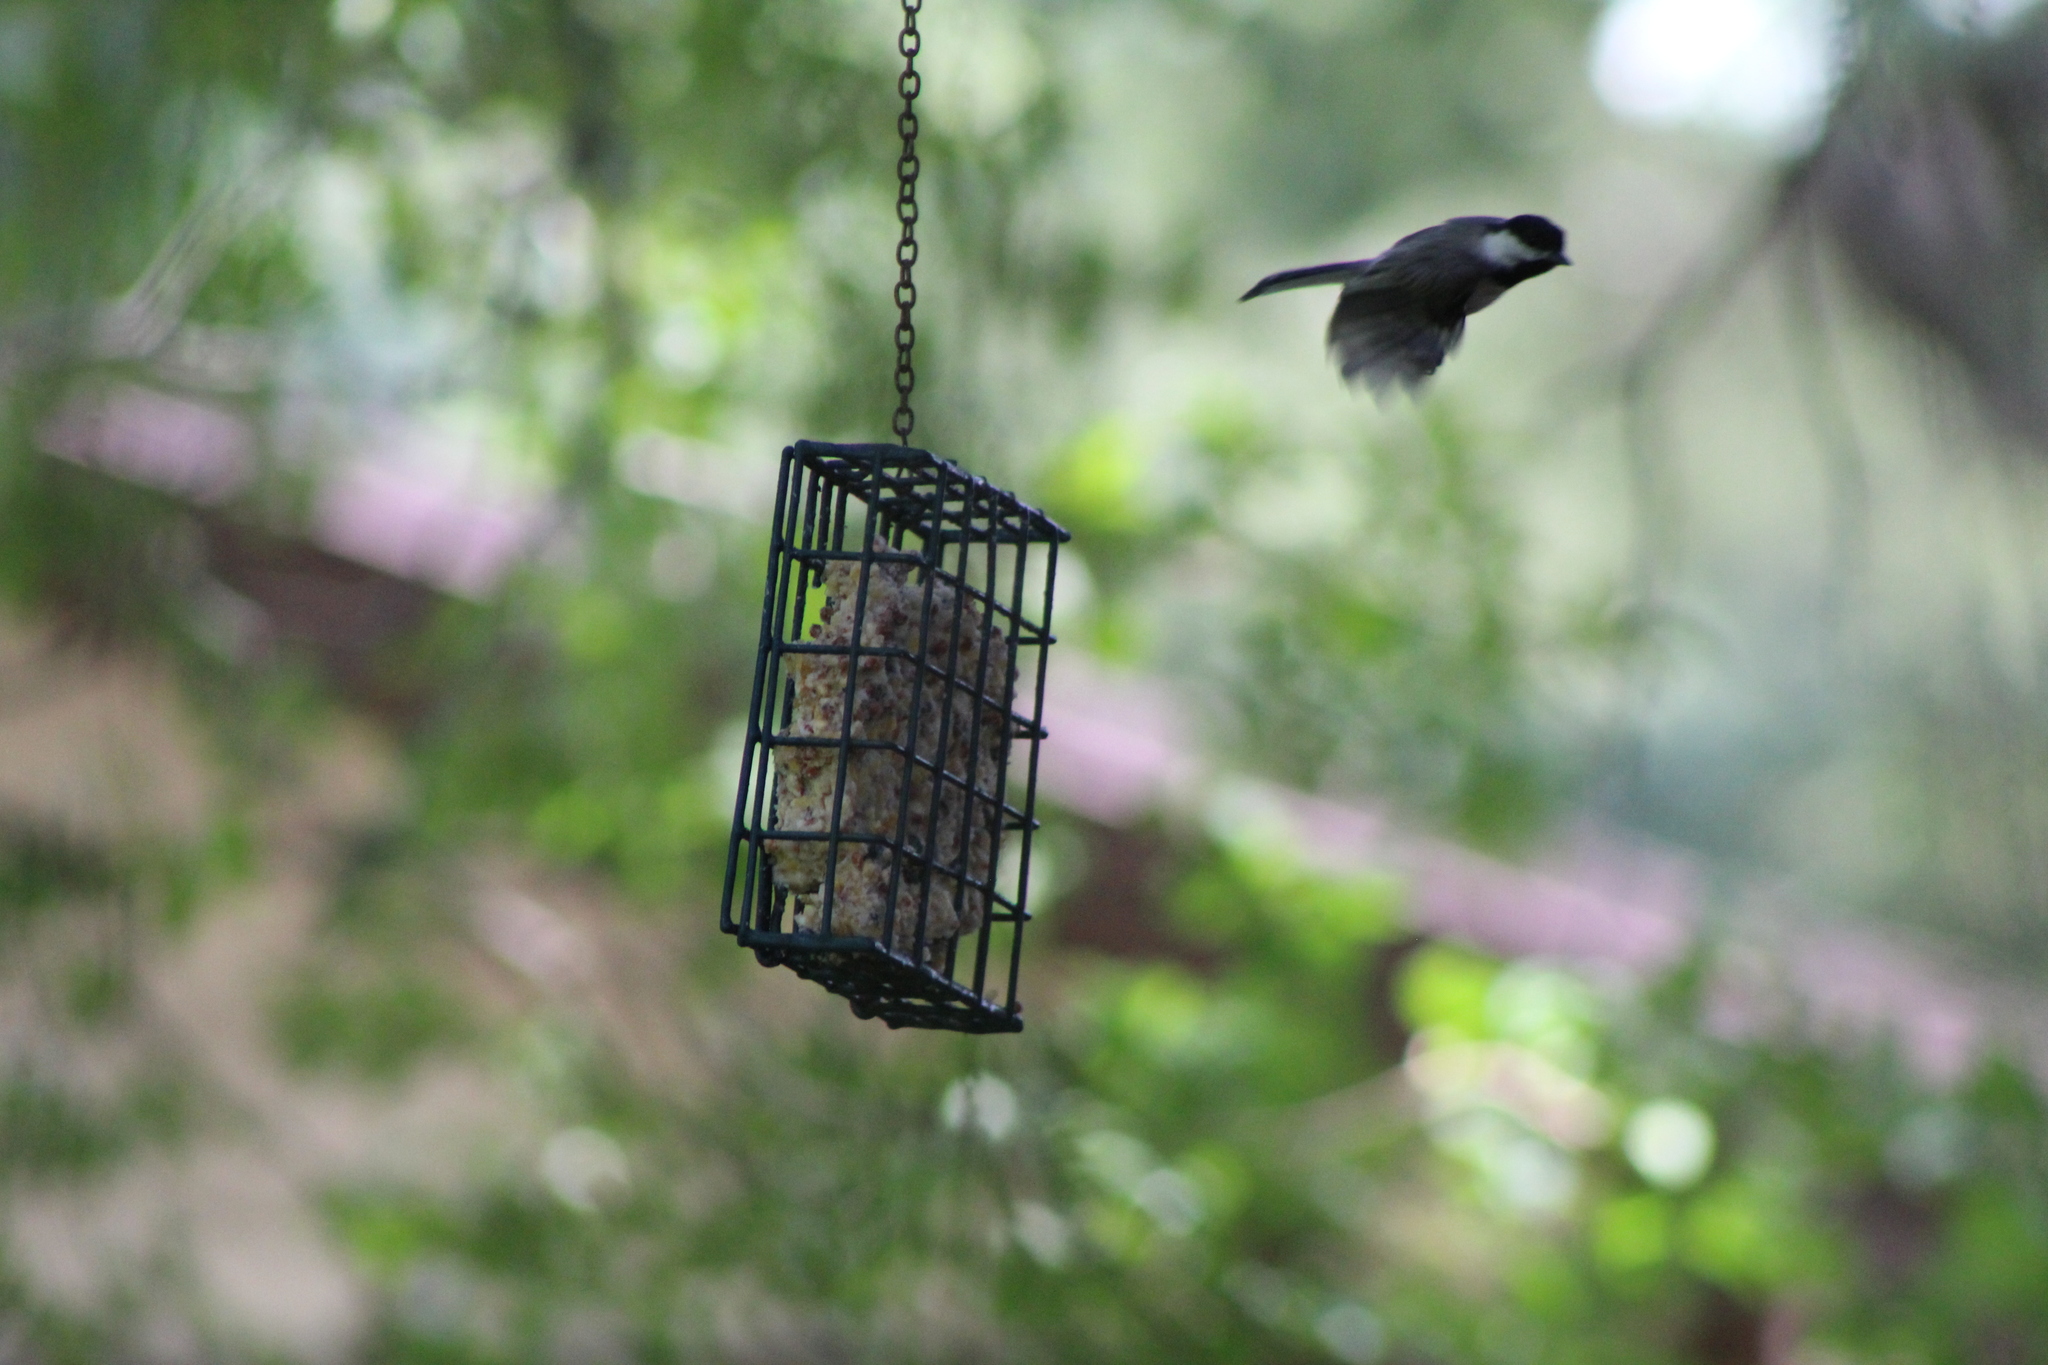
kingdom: Animalia
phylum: Chordata
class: Aves
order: Passeriformes
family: Paridae
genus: Poecile
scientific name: Poecile carolinensis
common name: Carolina chickadee
